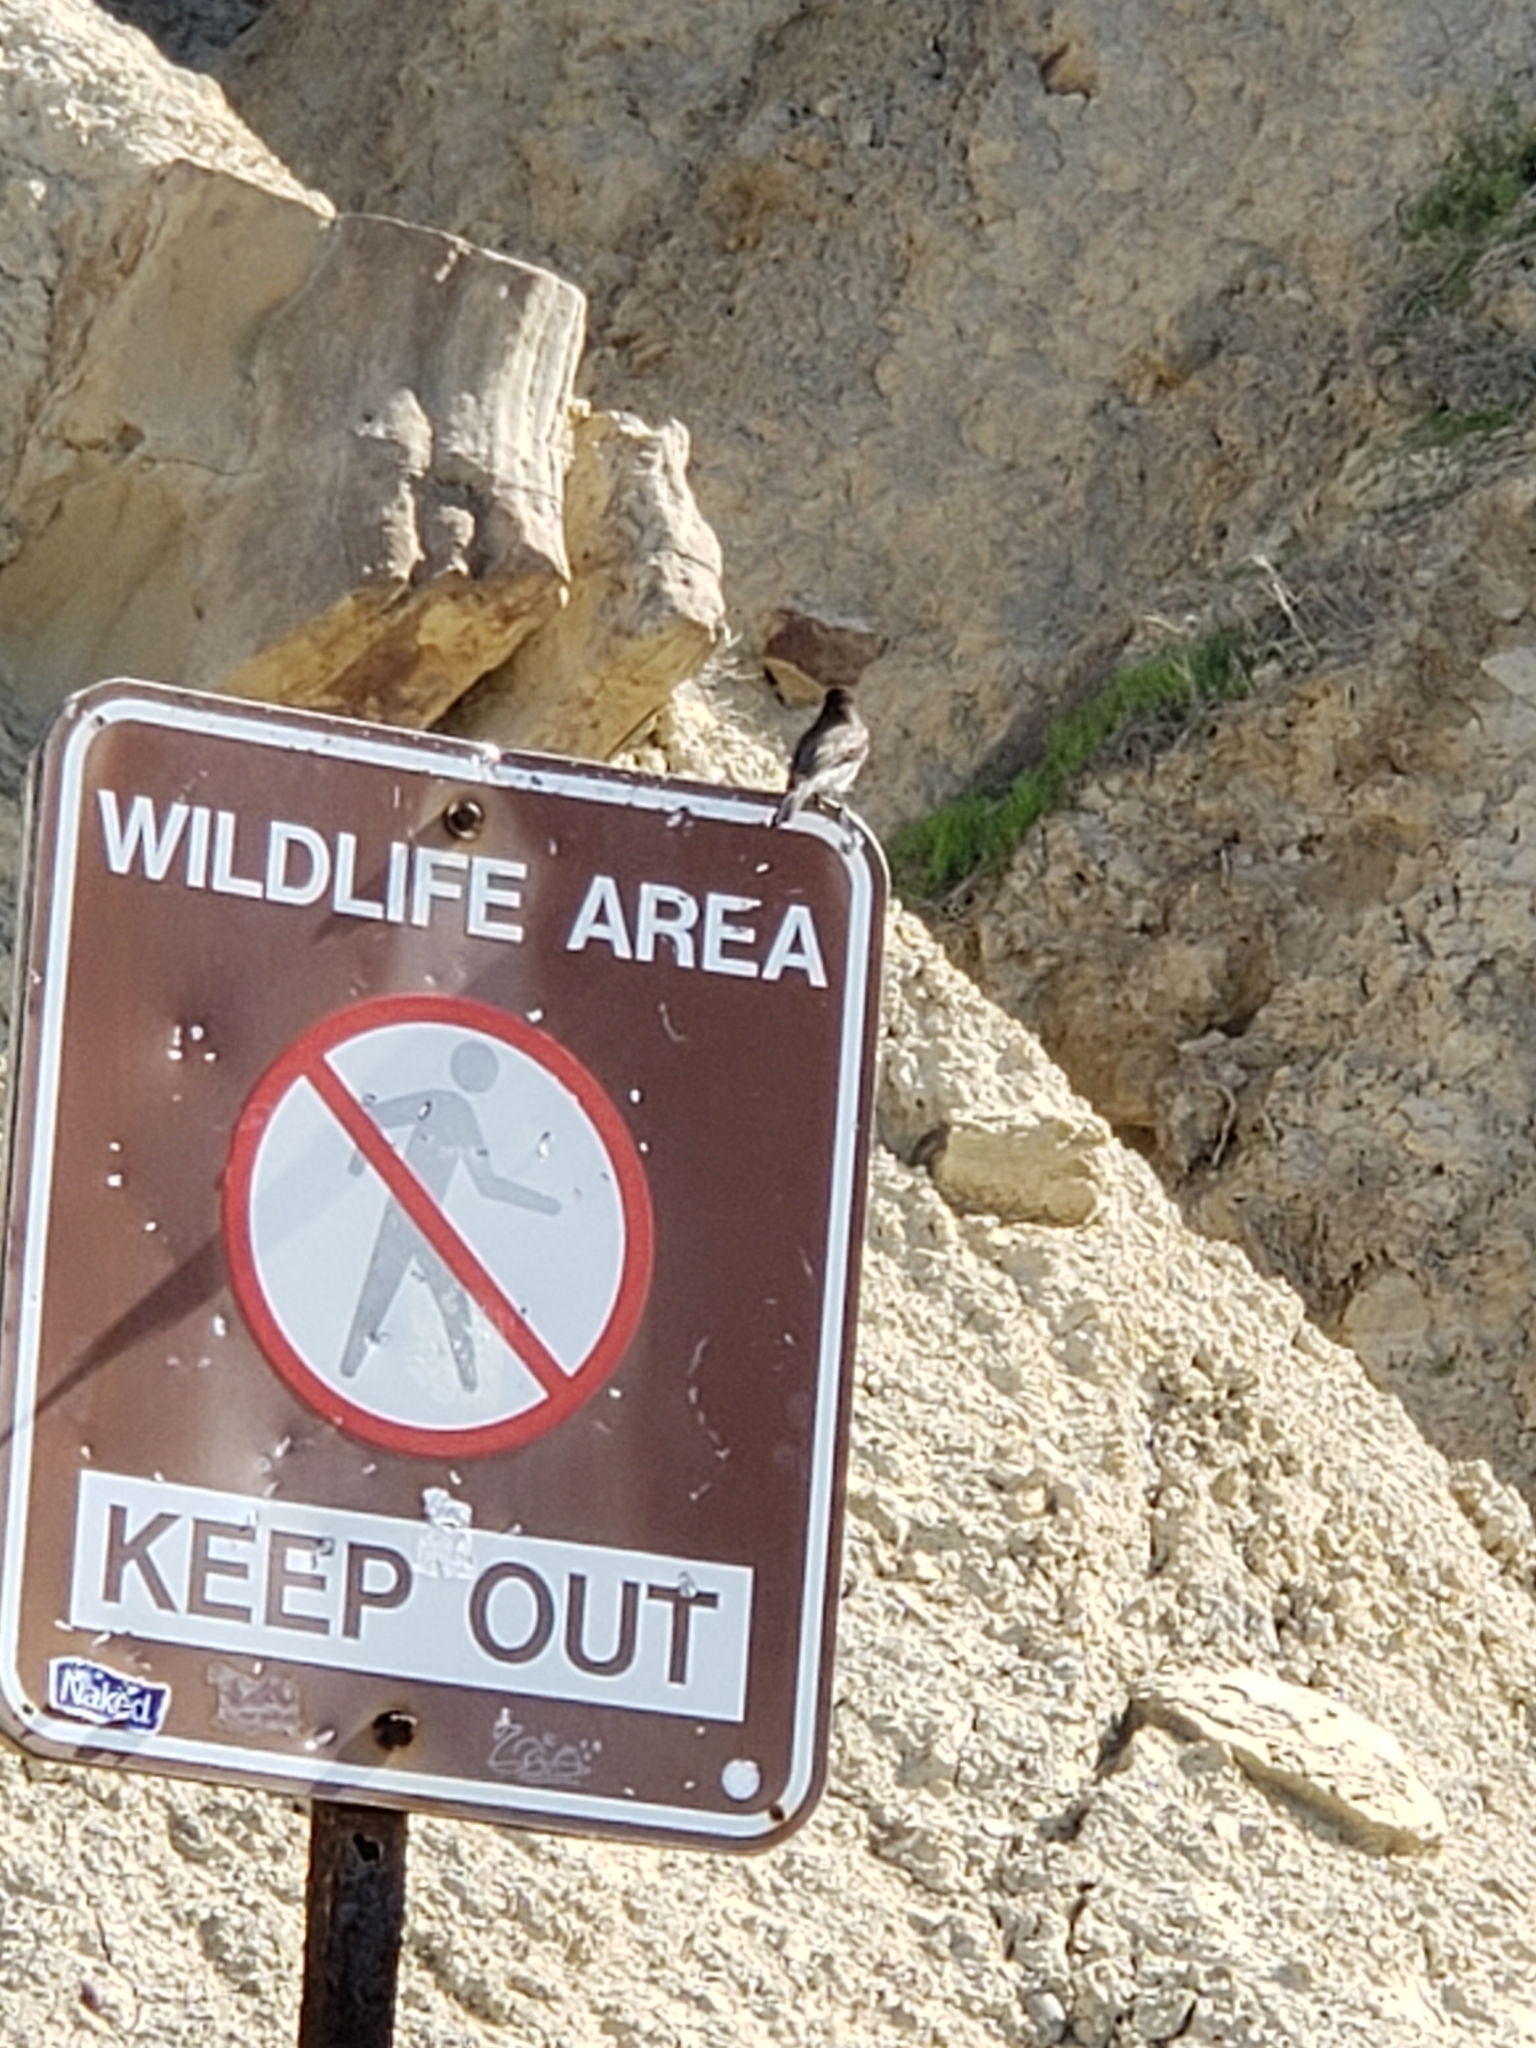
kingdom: Animalia
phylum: Chordata
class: Aves
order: Passeriformes
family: Tyrannidae
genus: Sayornis
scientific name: Sayornis nigricans
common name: Black phoebe
